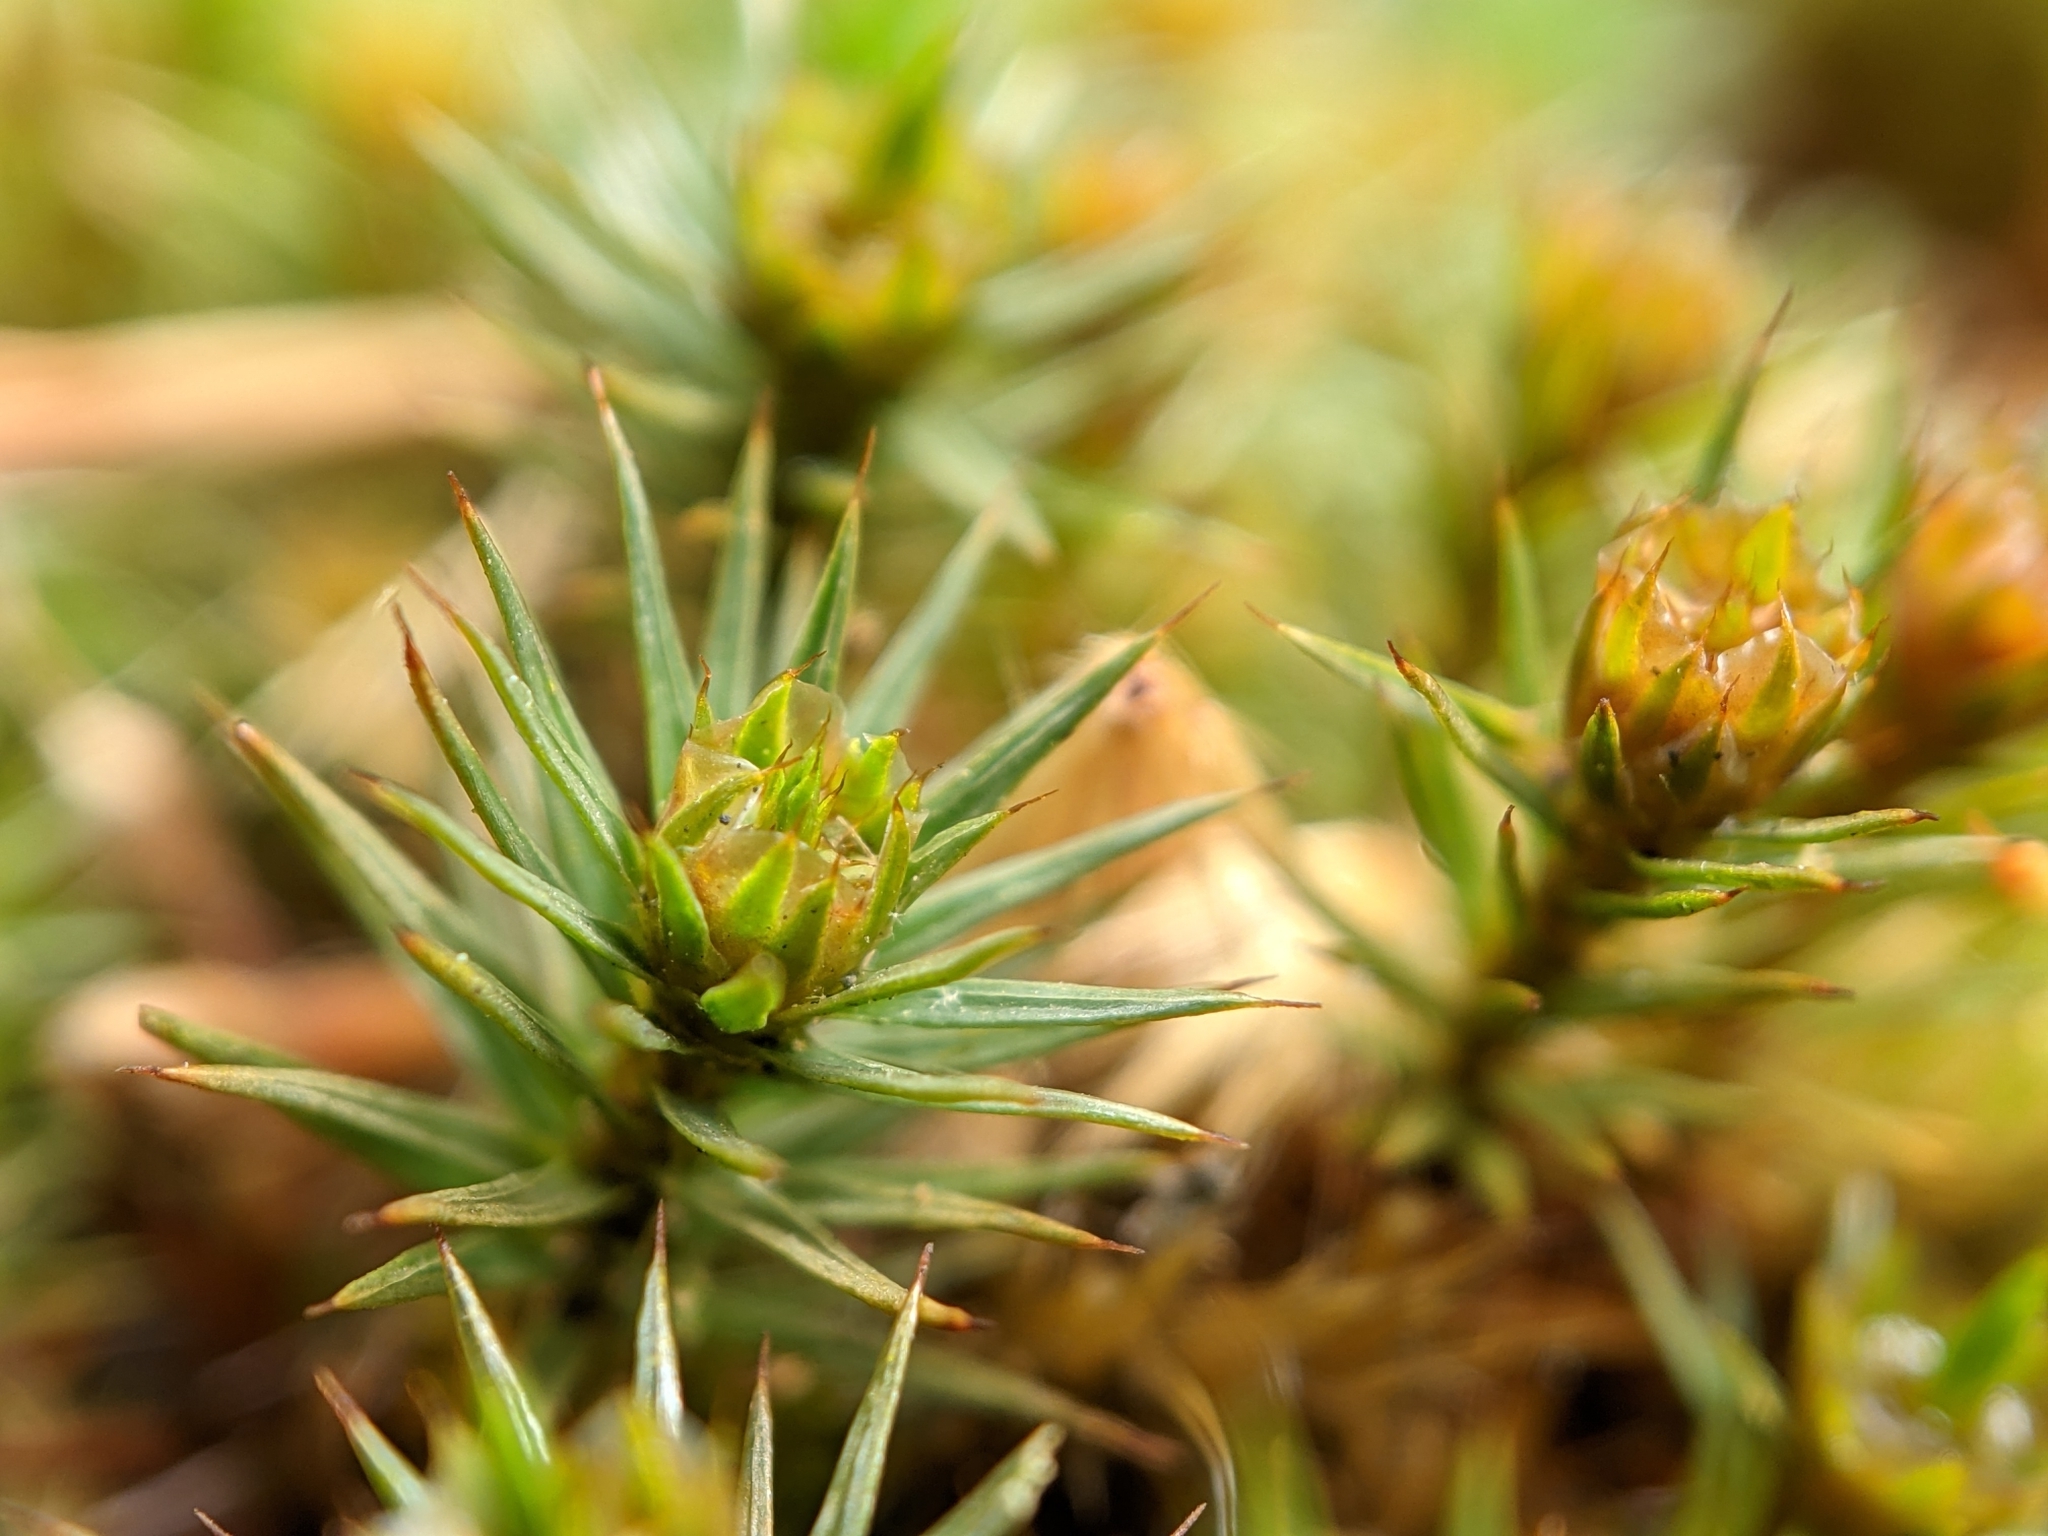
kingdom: Plantae
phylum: Bryophyta
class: Polytrichopsida
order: Polytrichales
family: Polytrichaceae
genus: Polytrichum
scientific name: Polytrichum juniperinum
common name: Juniper haircap moss
